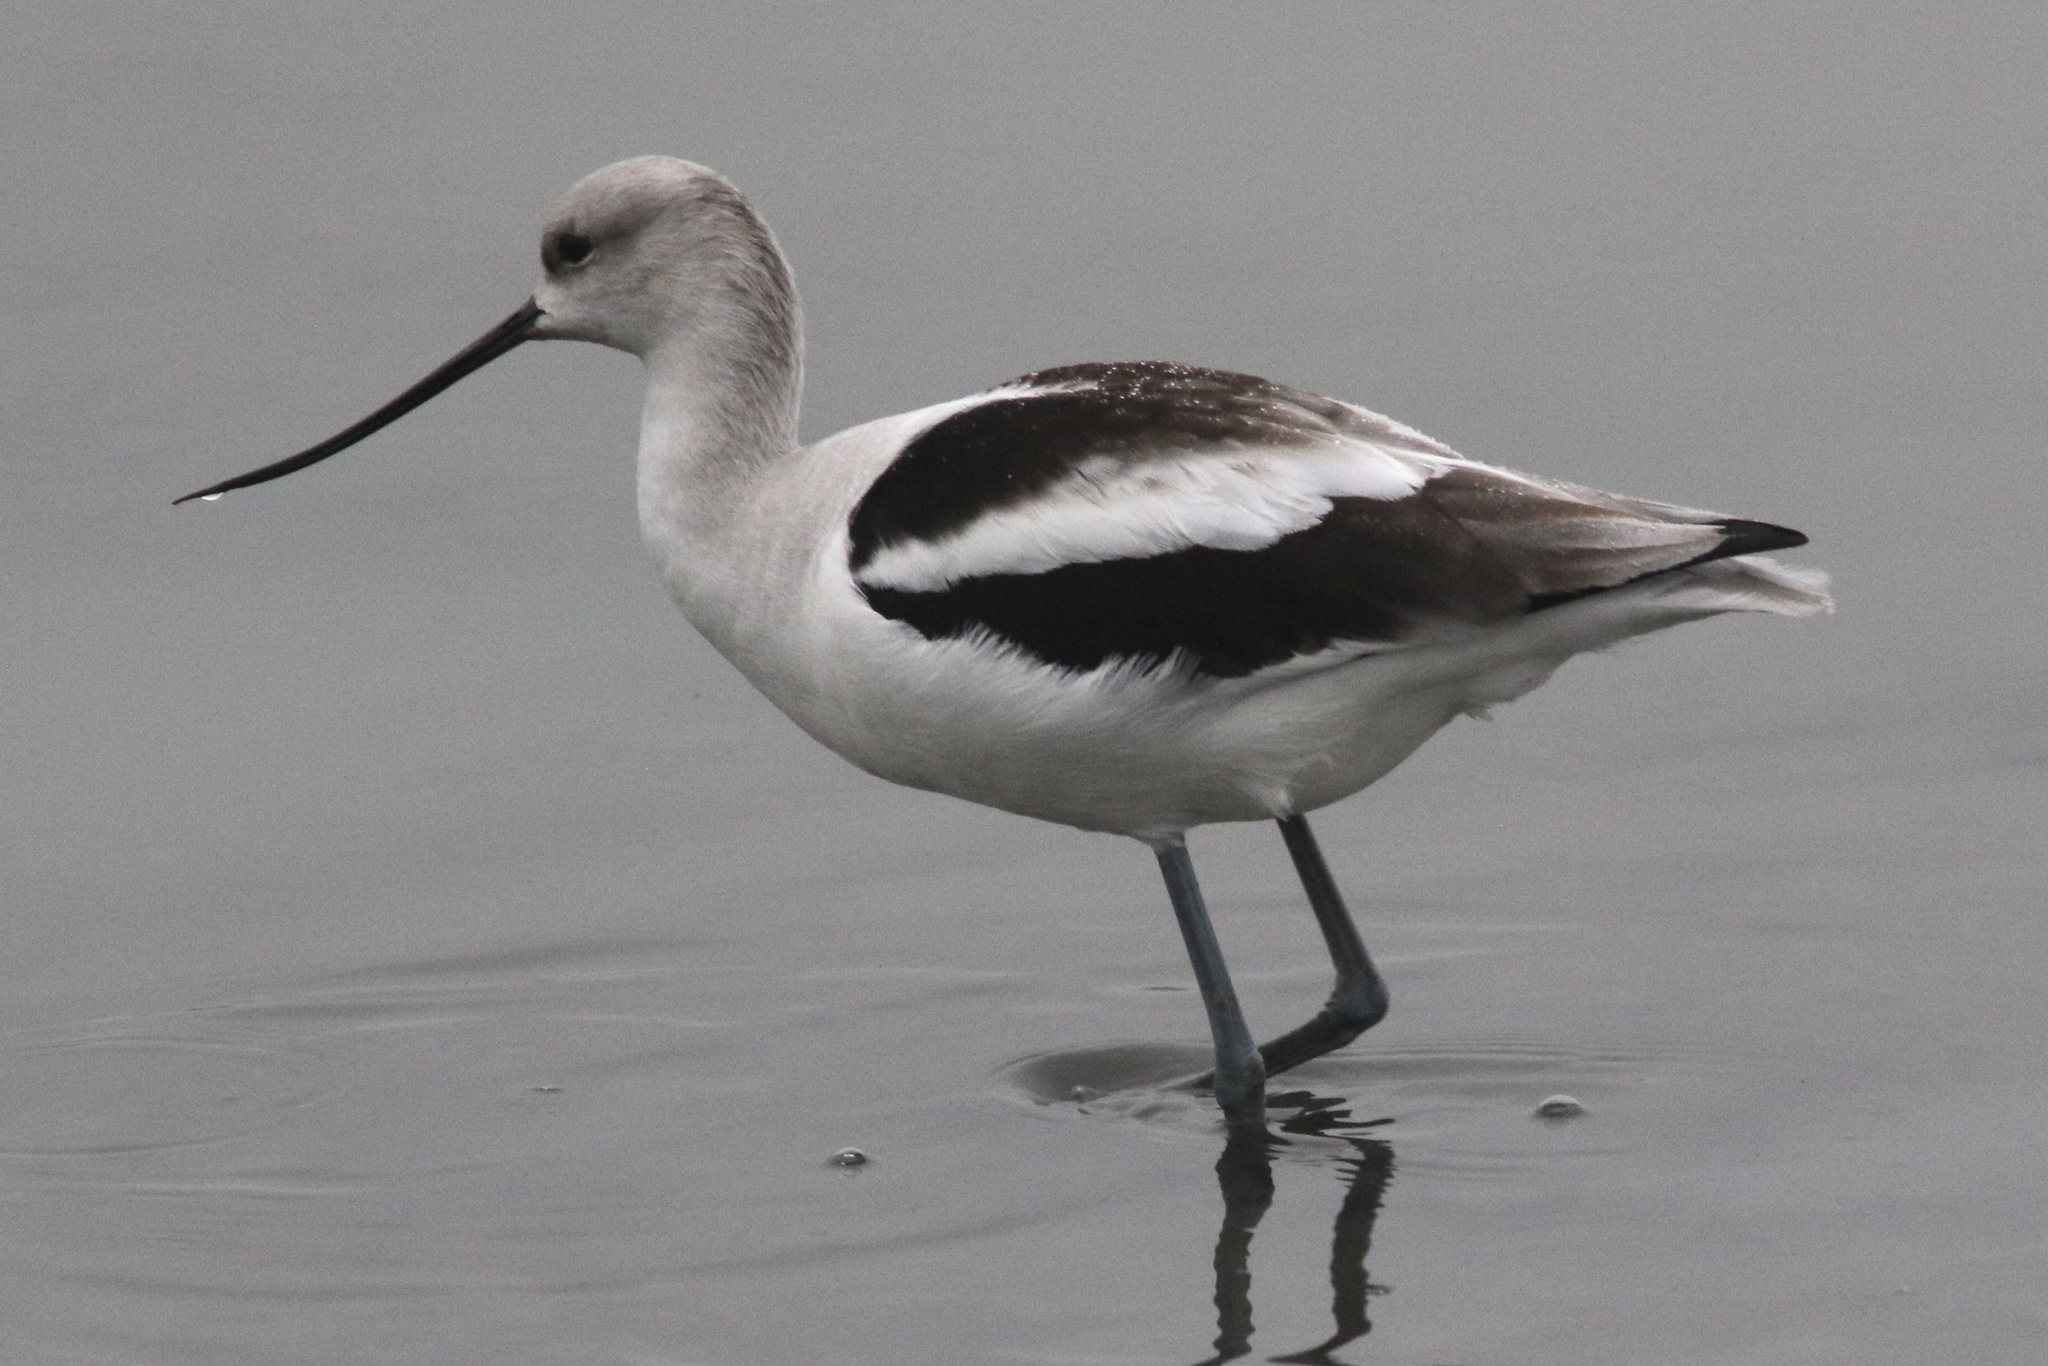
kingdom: Animalia
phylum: Chordata
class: Aves
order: Charadriiformes
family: Recurvirostridae
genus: Recurvirostra
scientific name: Recurvirostra americana
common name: American avocet
